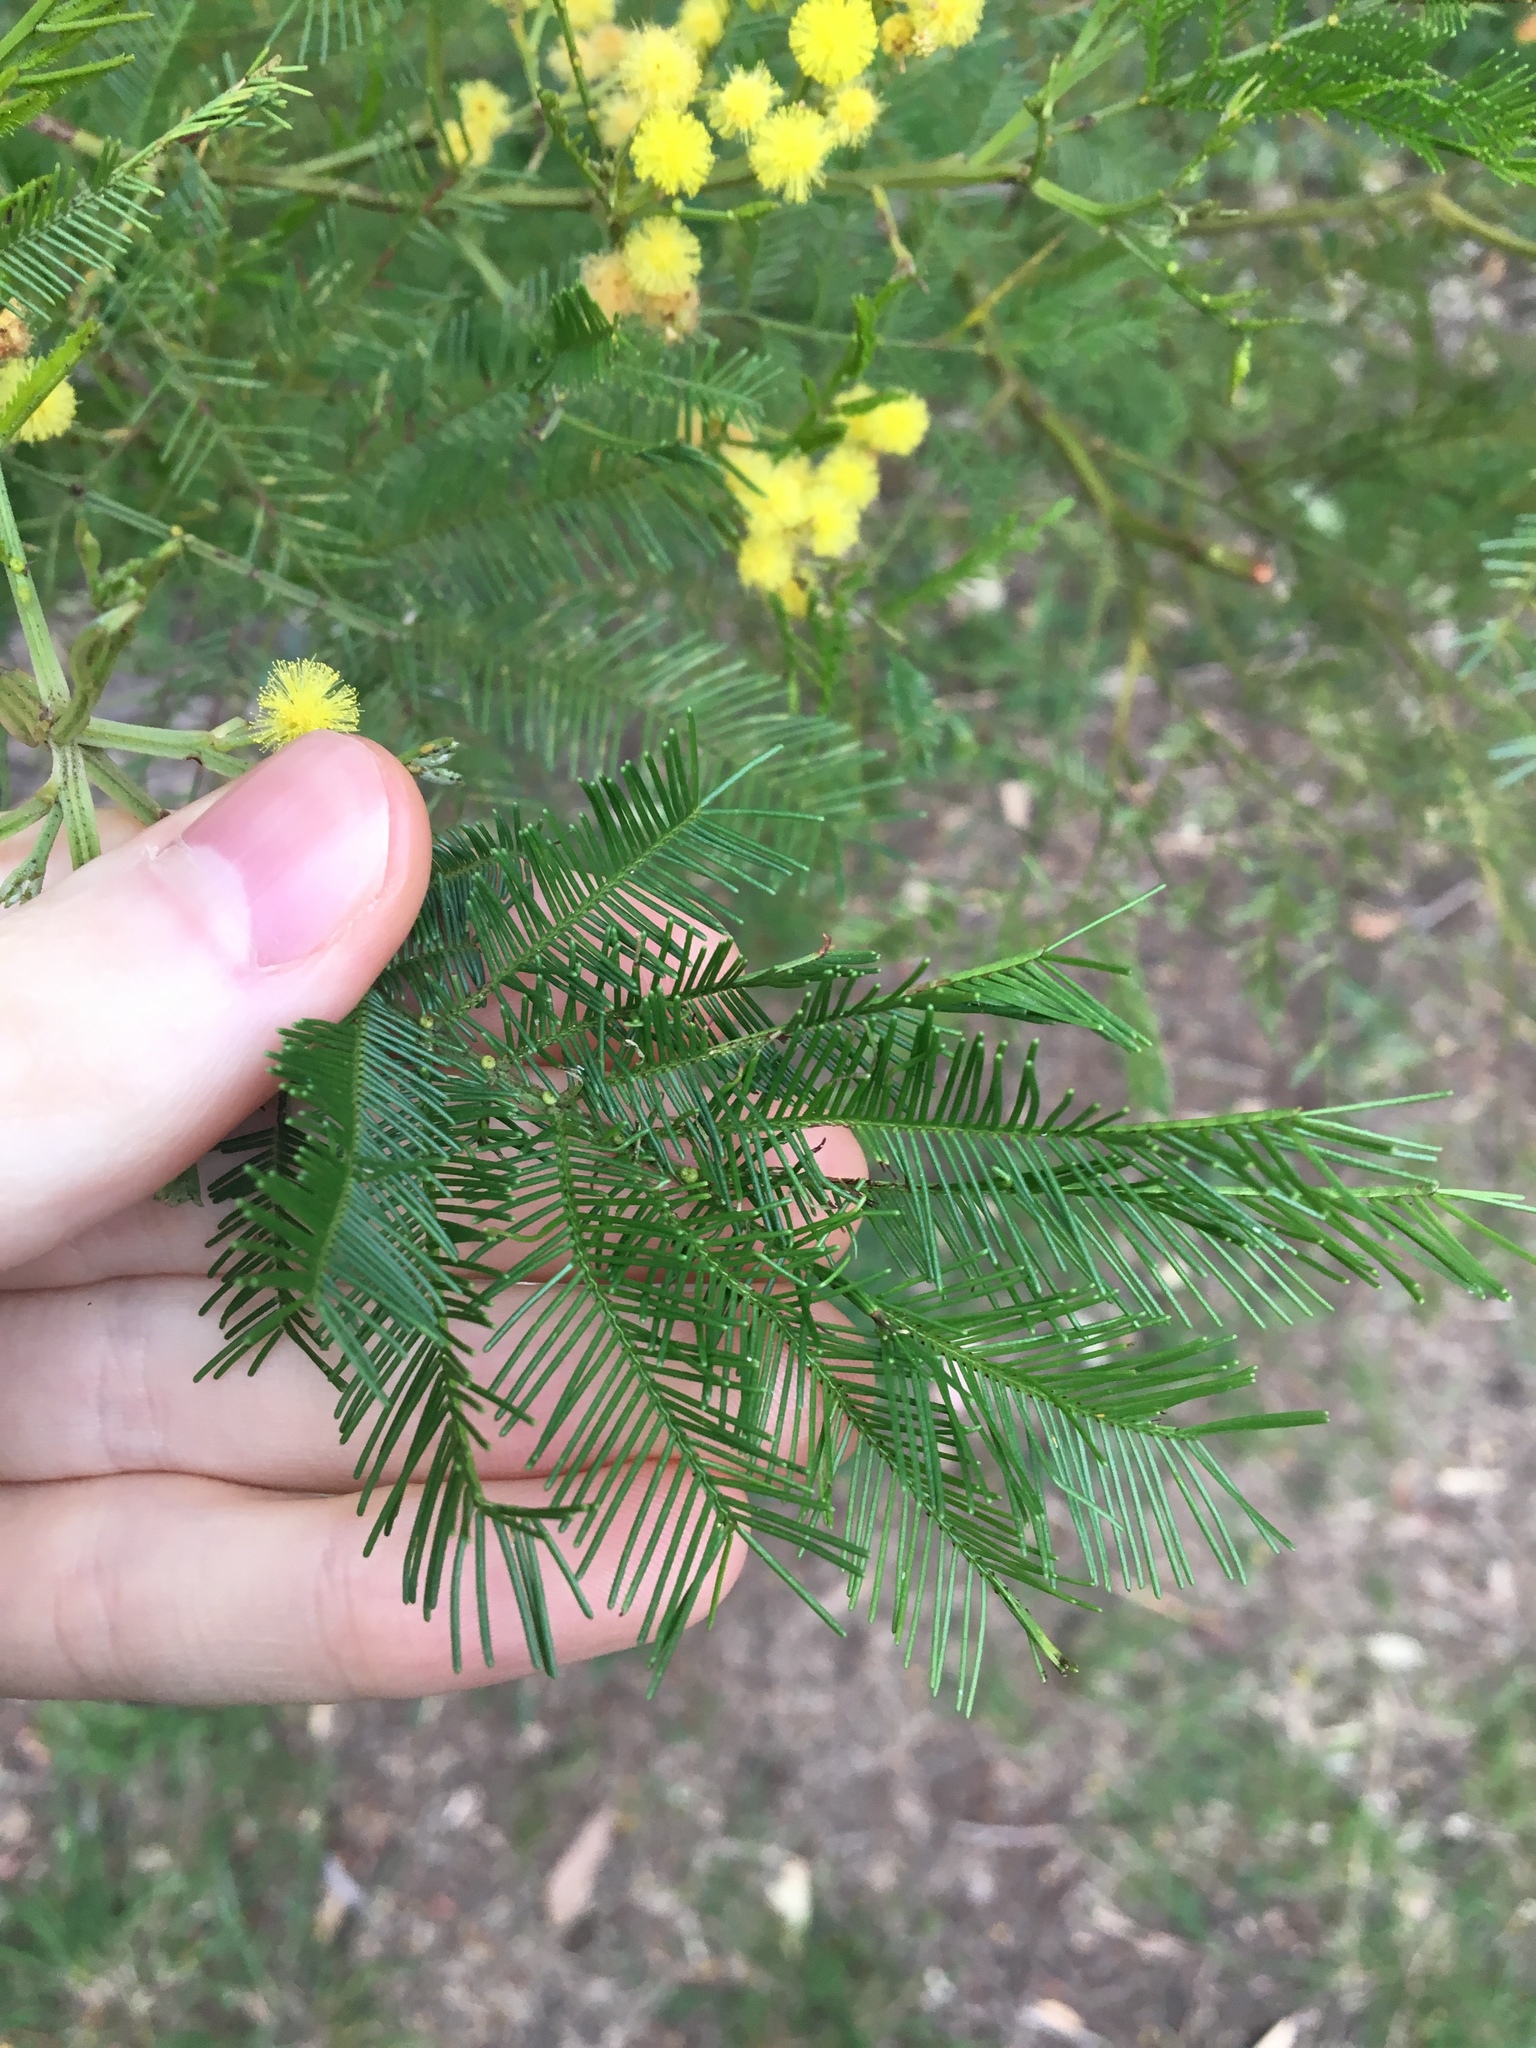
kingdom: Plantae
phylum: Tracheophyta
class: Magnoliopsida
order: Fabales
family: Fabaceae
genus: Acacia
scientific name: Acacia decurrens
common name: Green wattle
